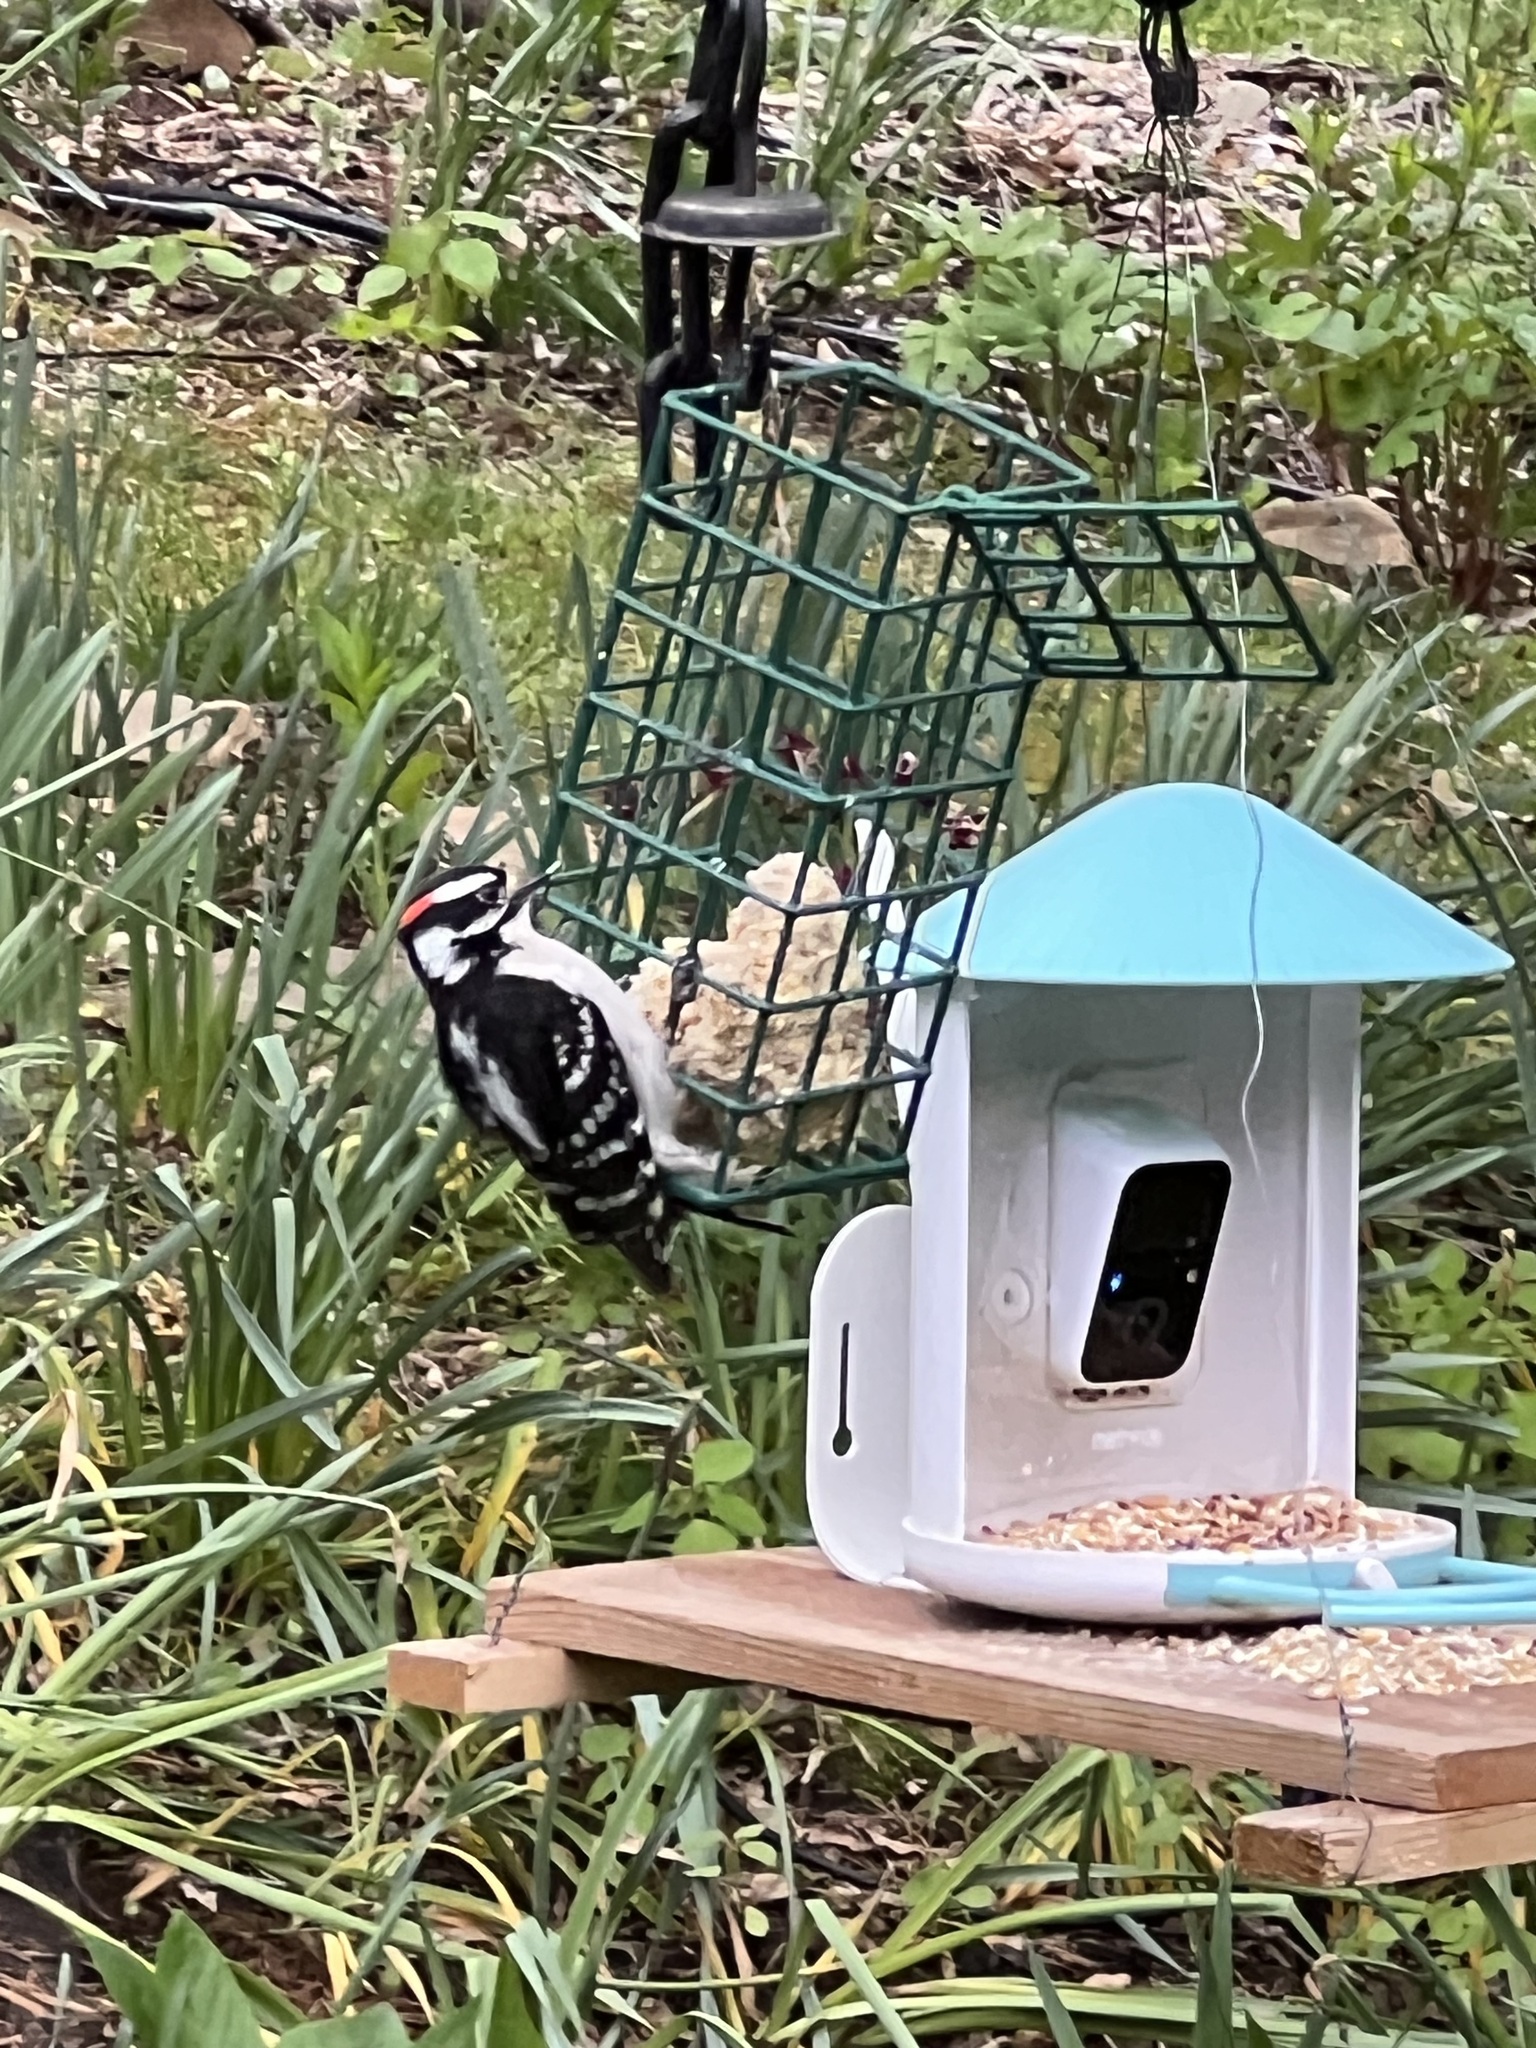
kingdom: Animalia
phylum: Chordata
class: Aves
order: Piciformes
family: Picidae
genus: Dryobates
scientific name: Dryobates pubescens
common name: Downy woodpecker
